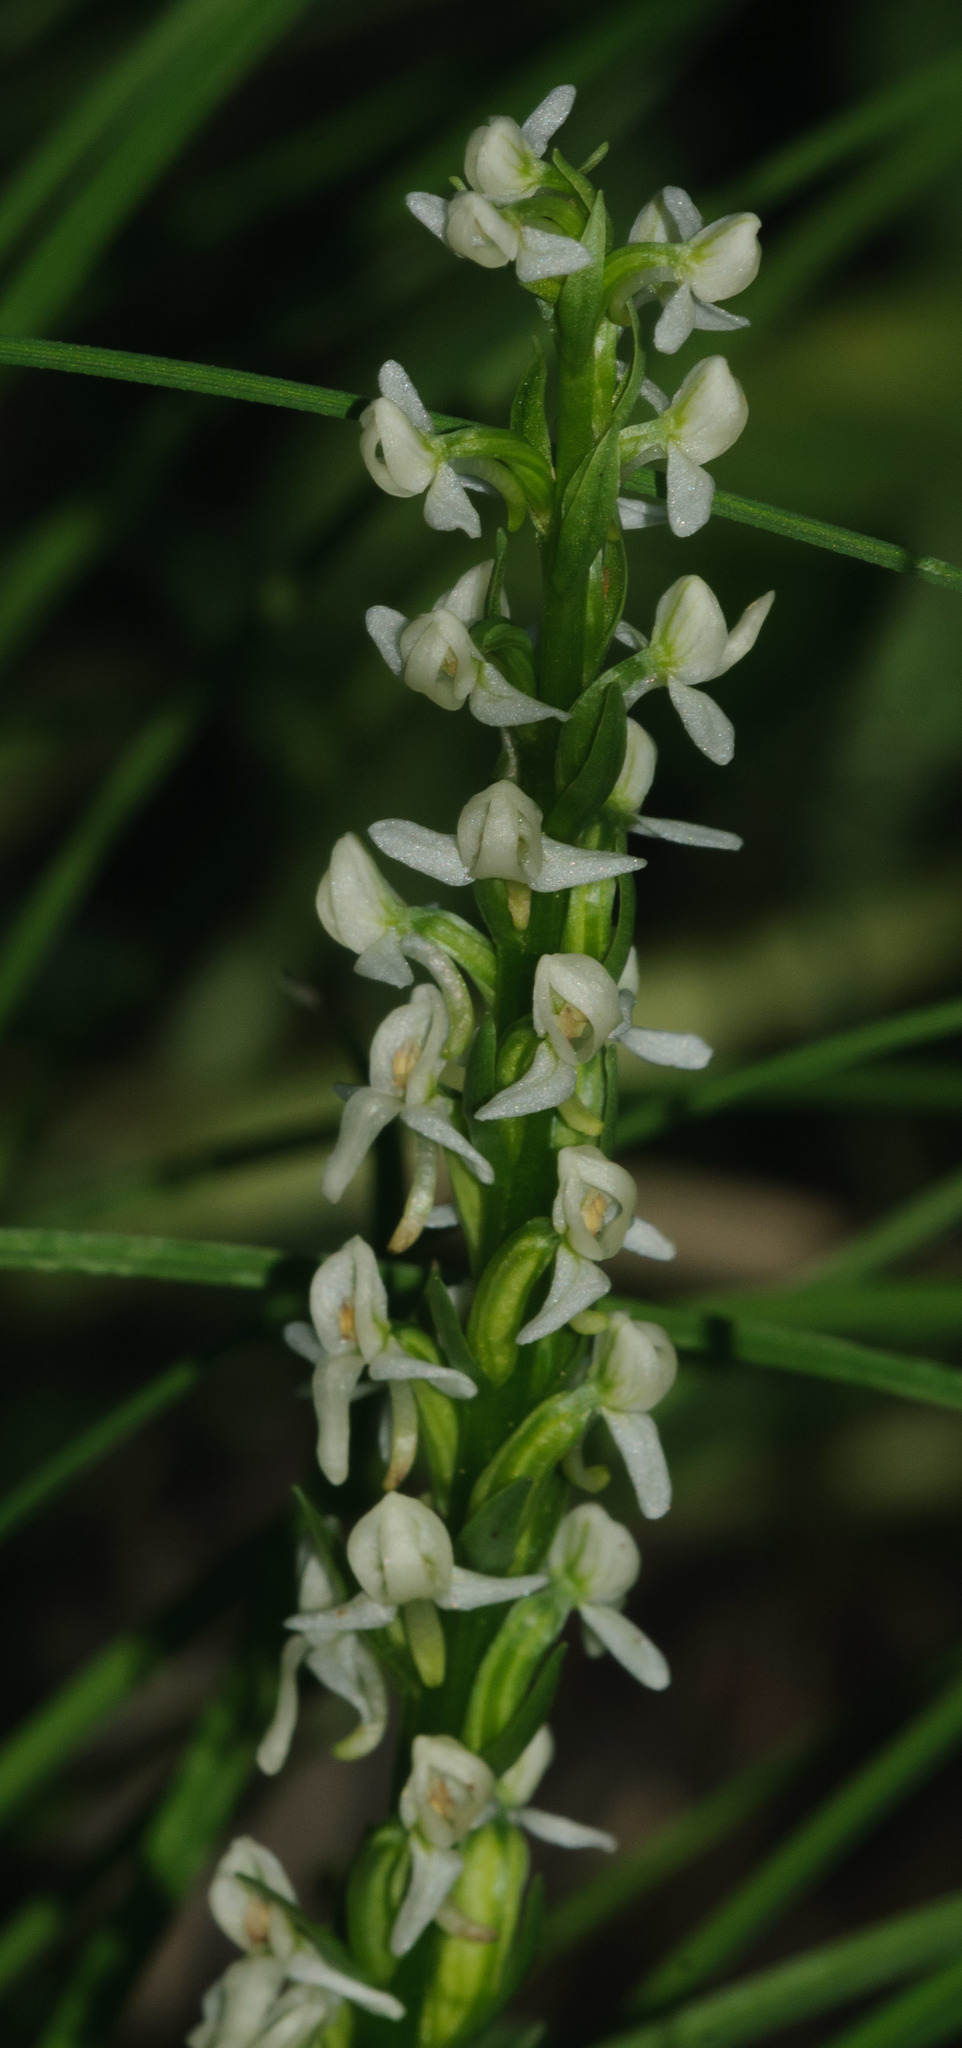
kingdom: Plantae
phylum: Tracheophyta
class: Liliopsida
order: Asparagales
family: Orchidaceae
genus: Platanthera
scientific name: Platanthera dilatata
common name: Bog candles
